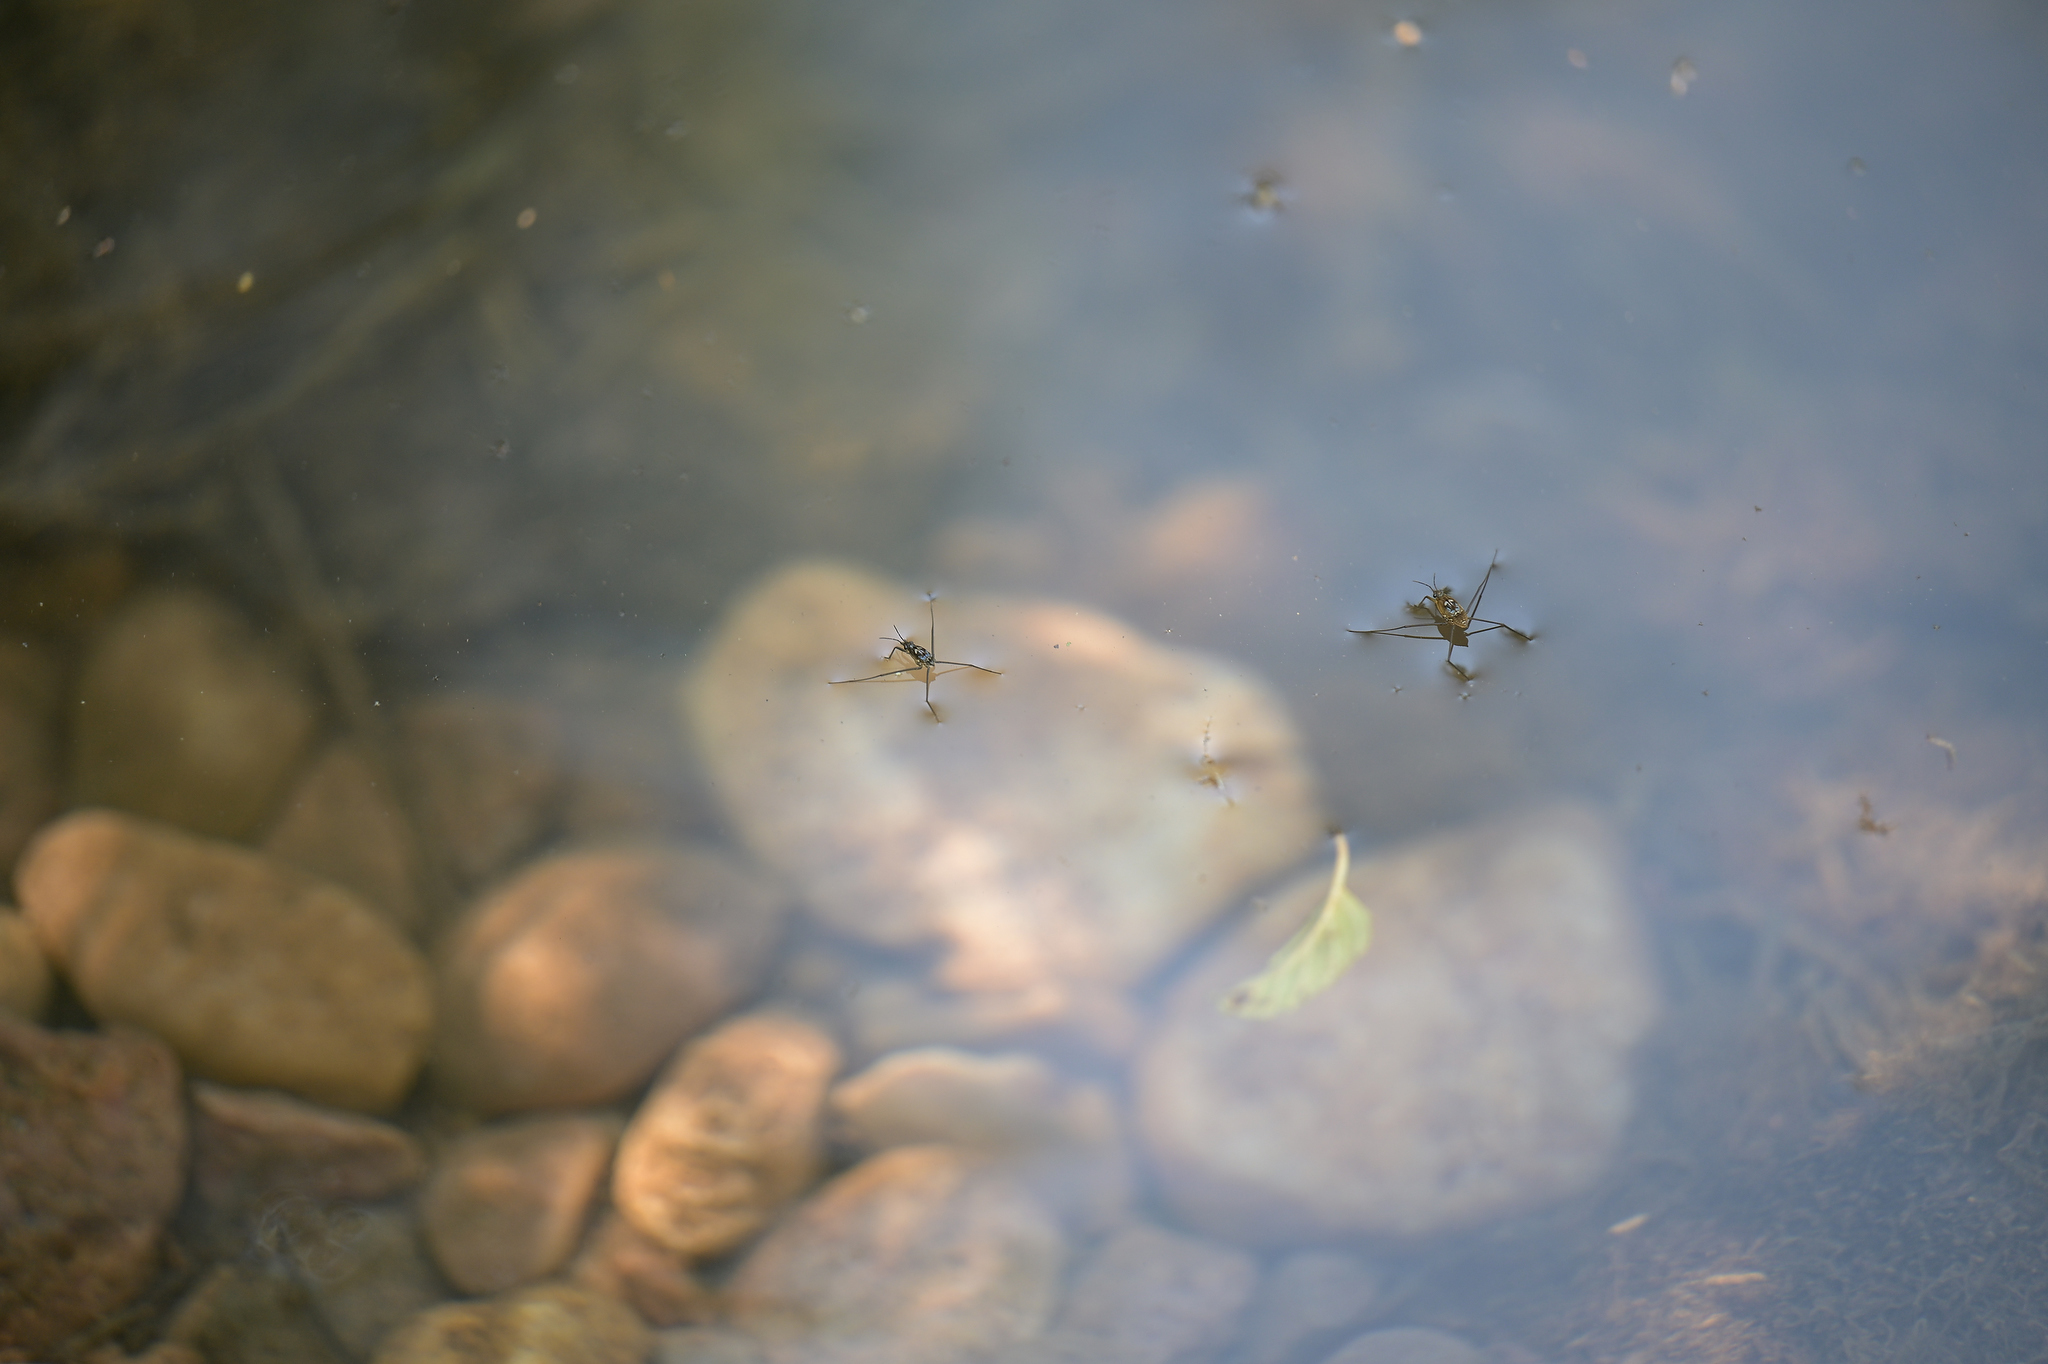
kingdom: Animalia
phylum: Arthropoda
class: Insecta
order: Hemiptera
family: Gerridae
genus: Aquarius
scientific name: Aquarius remigis
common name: Common water strider
